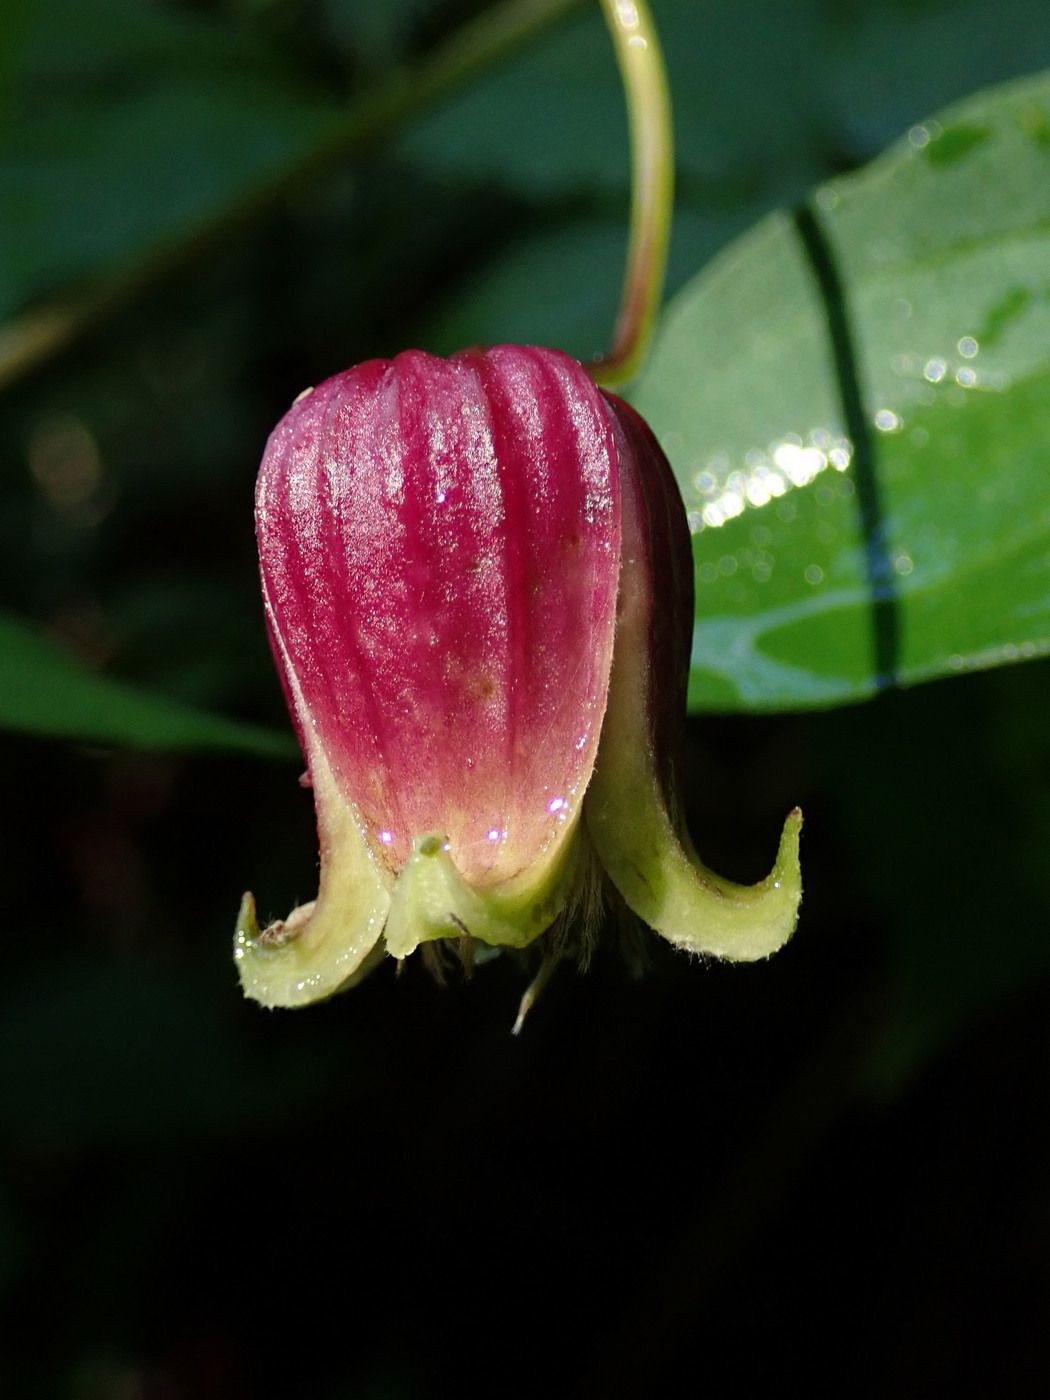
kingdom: Plantae
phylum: Tracheophyta
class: Magnoliopsida
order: Ranunculales
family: Ranunculaceae
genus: Clematis
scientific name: Clematis viorna
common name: Leather-flower
